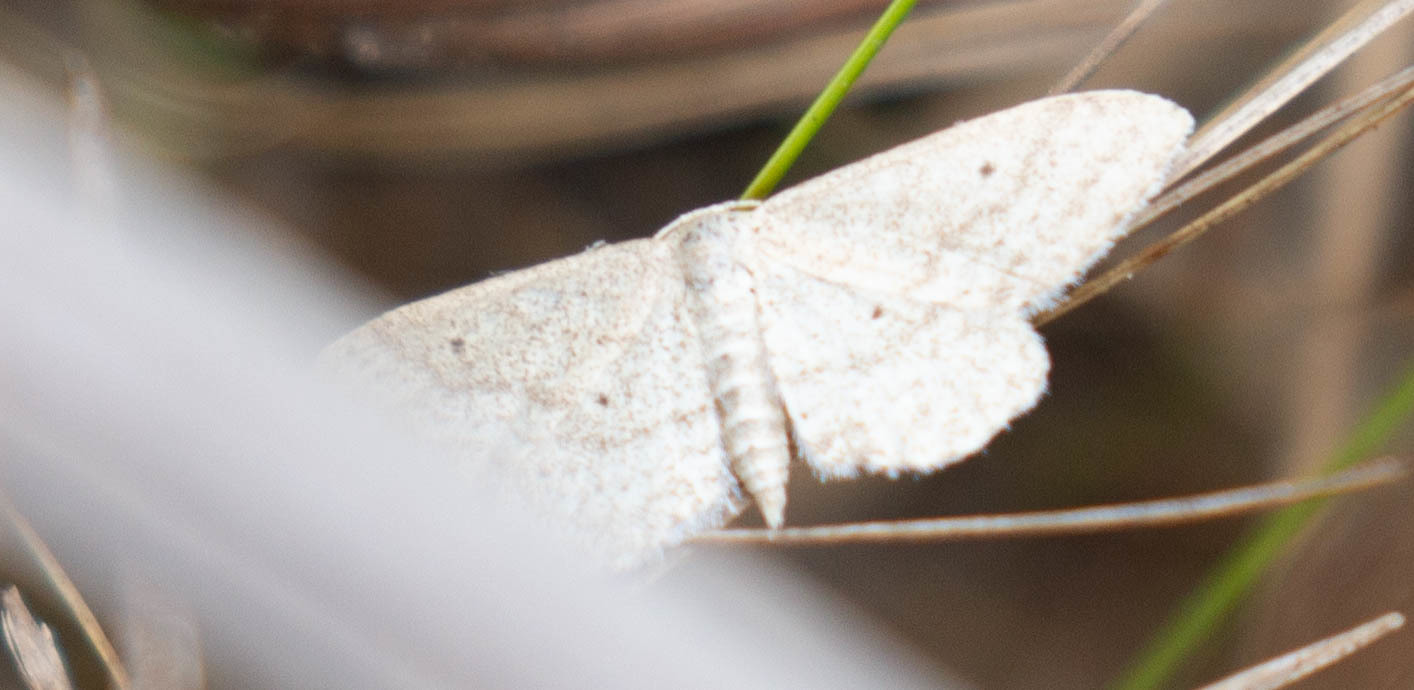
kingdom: Animalia
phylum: Arthropoda
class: Insecta
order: Lepidoptera
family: Geometridae
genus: Lobocleta
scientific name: Lobocleta peralbata
